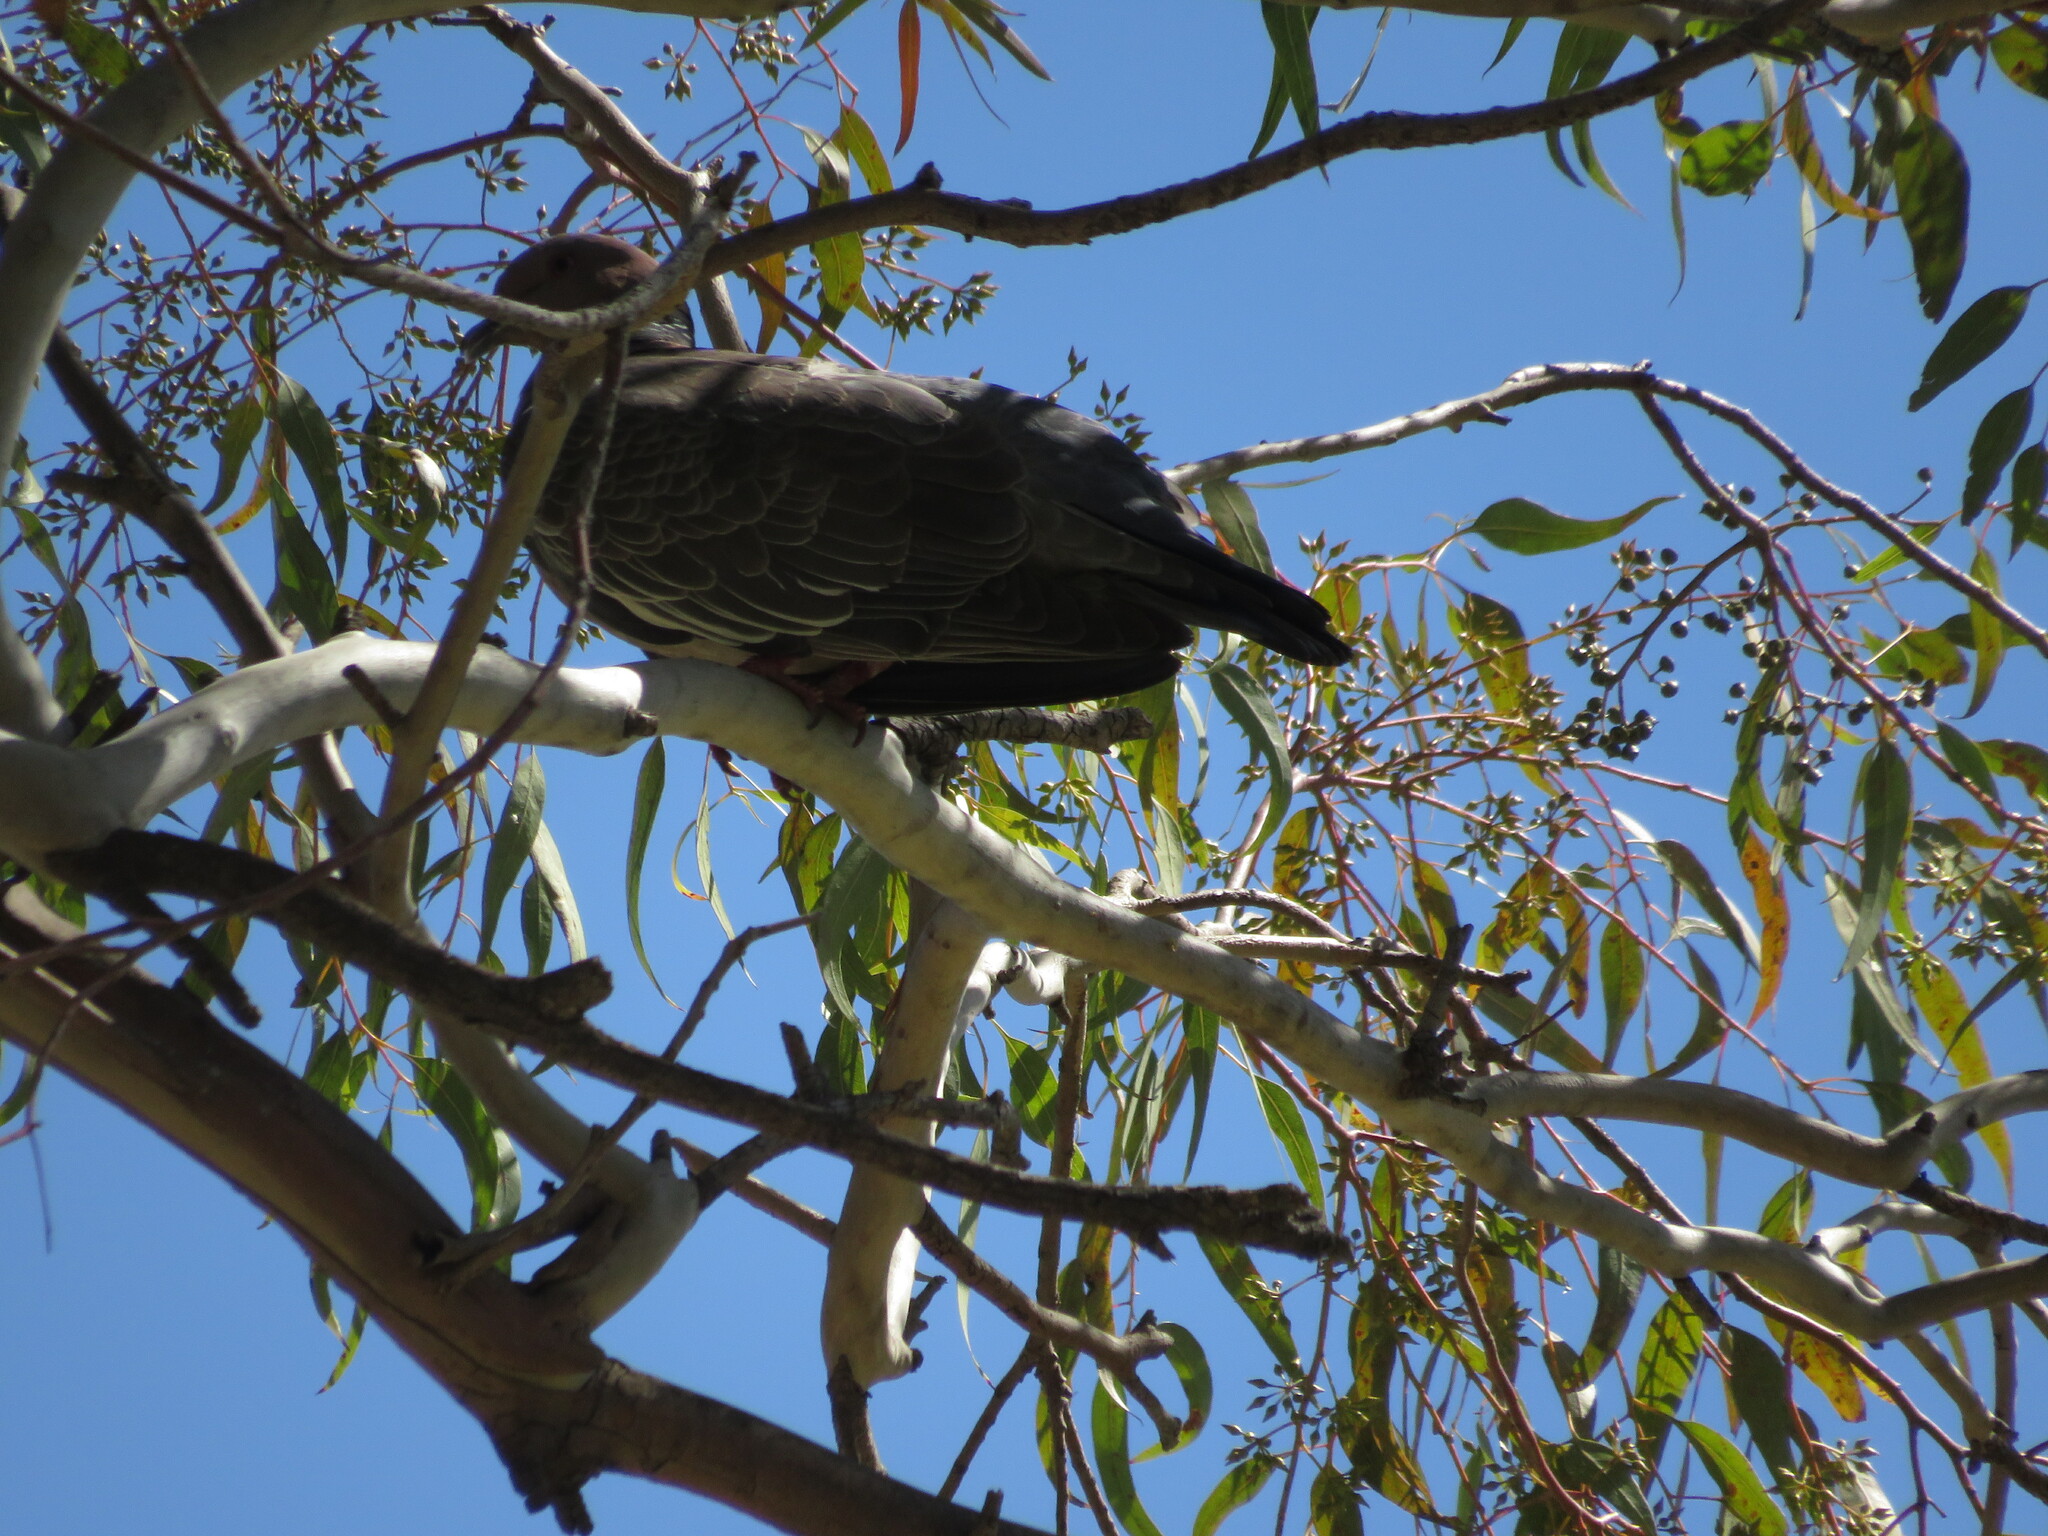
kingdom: Animalia
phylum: Chordata
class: Aves
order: Columbiformes
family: Columbidae
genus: Patagioenas
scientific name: Patagioenas picazuro
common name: Picazuro pigeon
